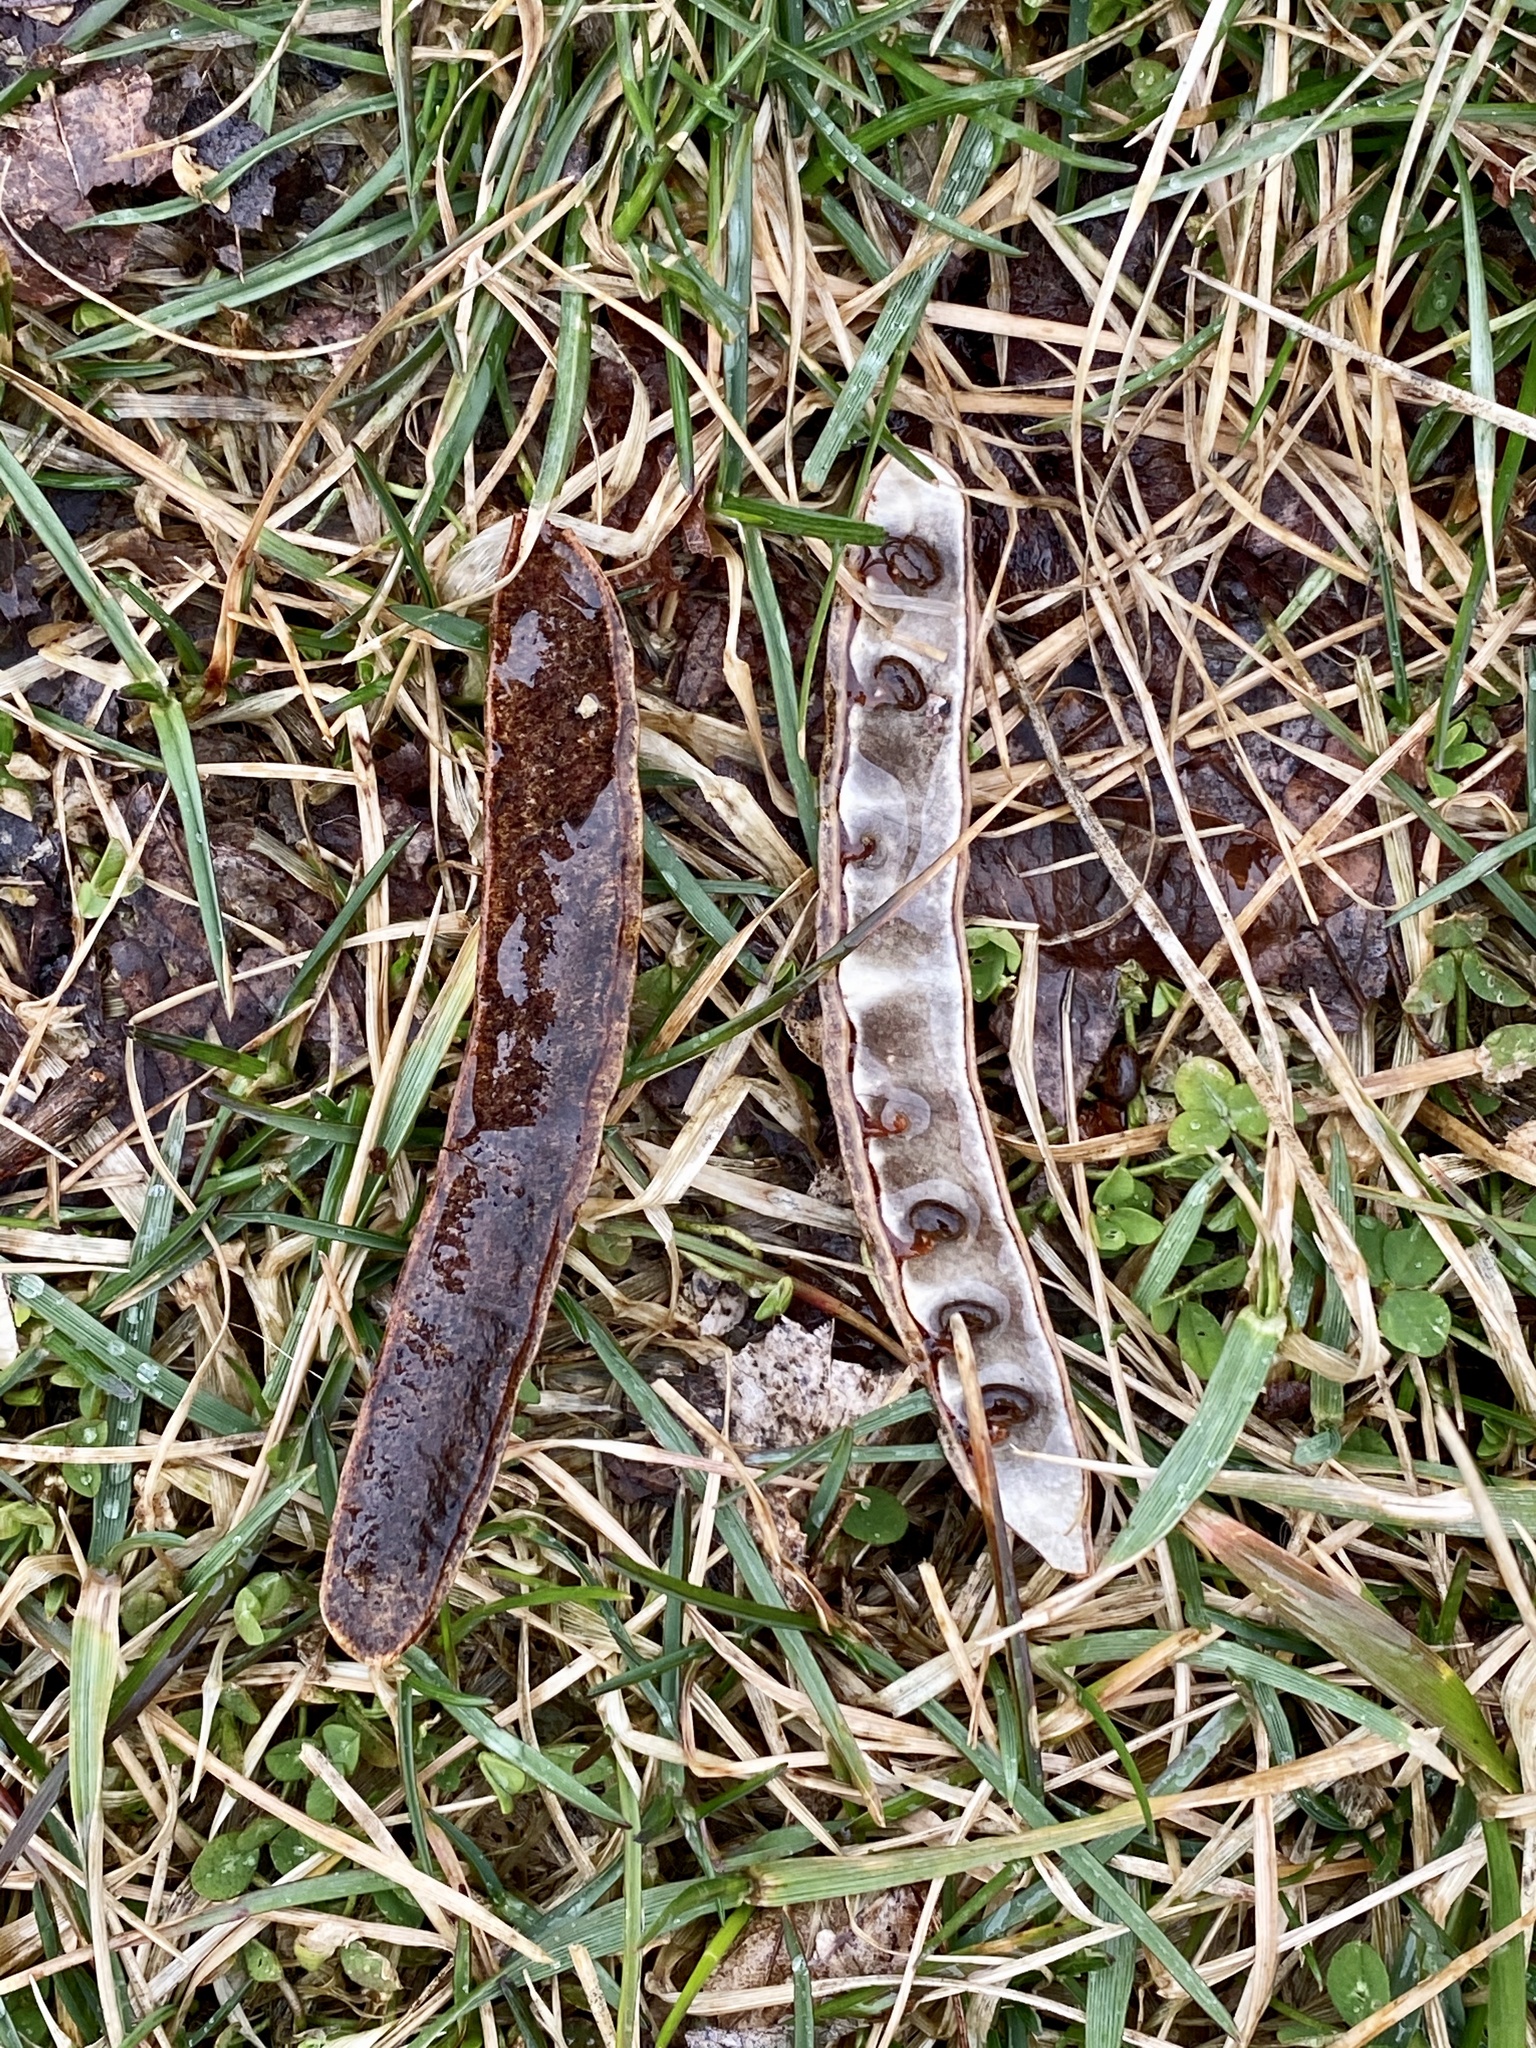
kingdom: Plantae
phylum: Tracheophyta
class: Magnoliopsida
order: Fabales
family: Fabaceae
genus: Robinia
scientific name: Robinia pseudoacacia
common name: Black locust
